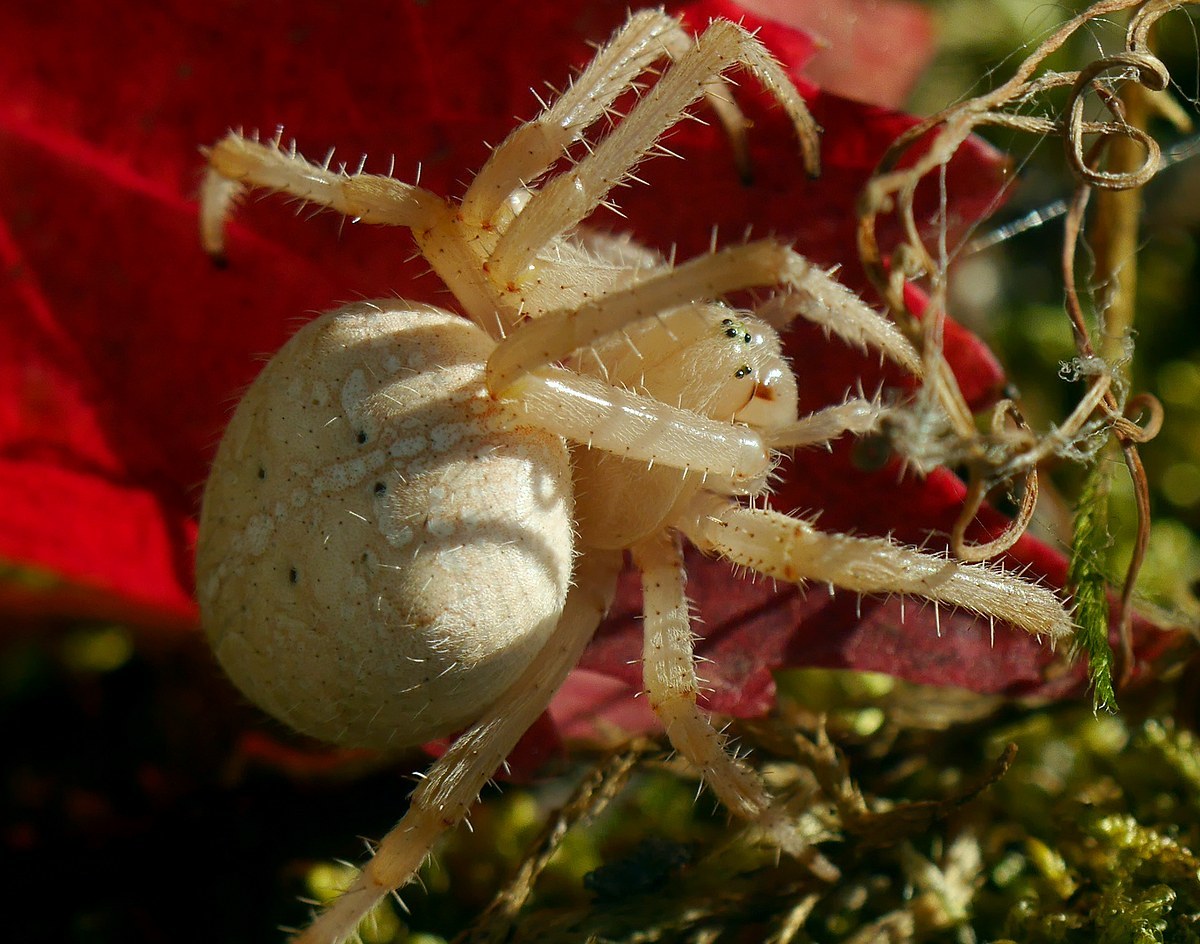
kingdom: Animalia
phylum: Arthropoda
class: Arachnida
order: Araneae
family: Araneidae
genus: Araneus
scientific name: Araneus diadematus
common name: Cross orbweaver
